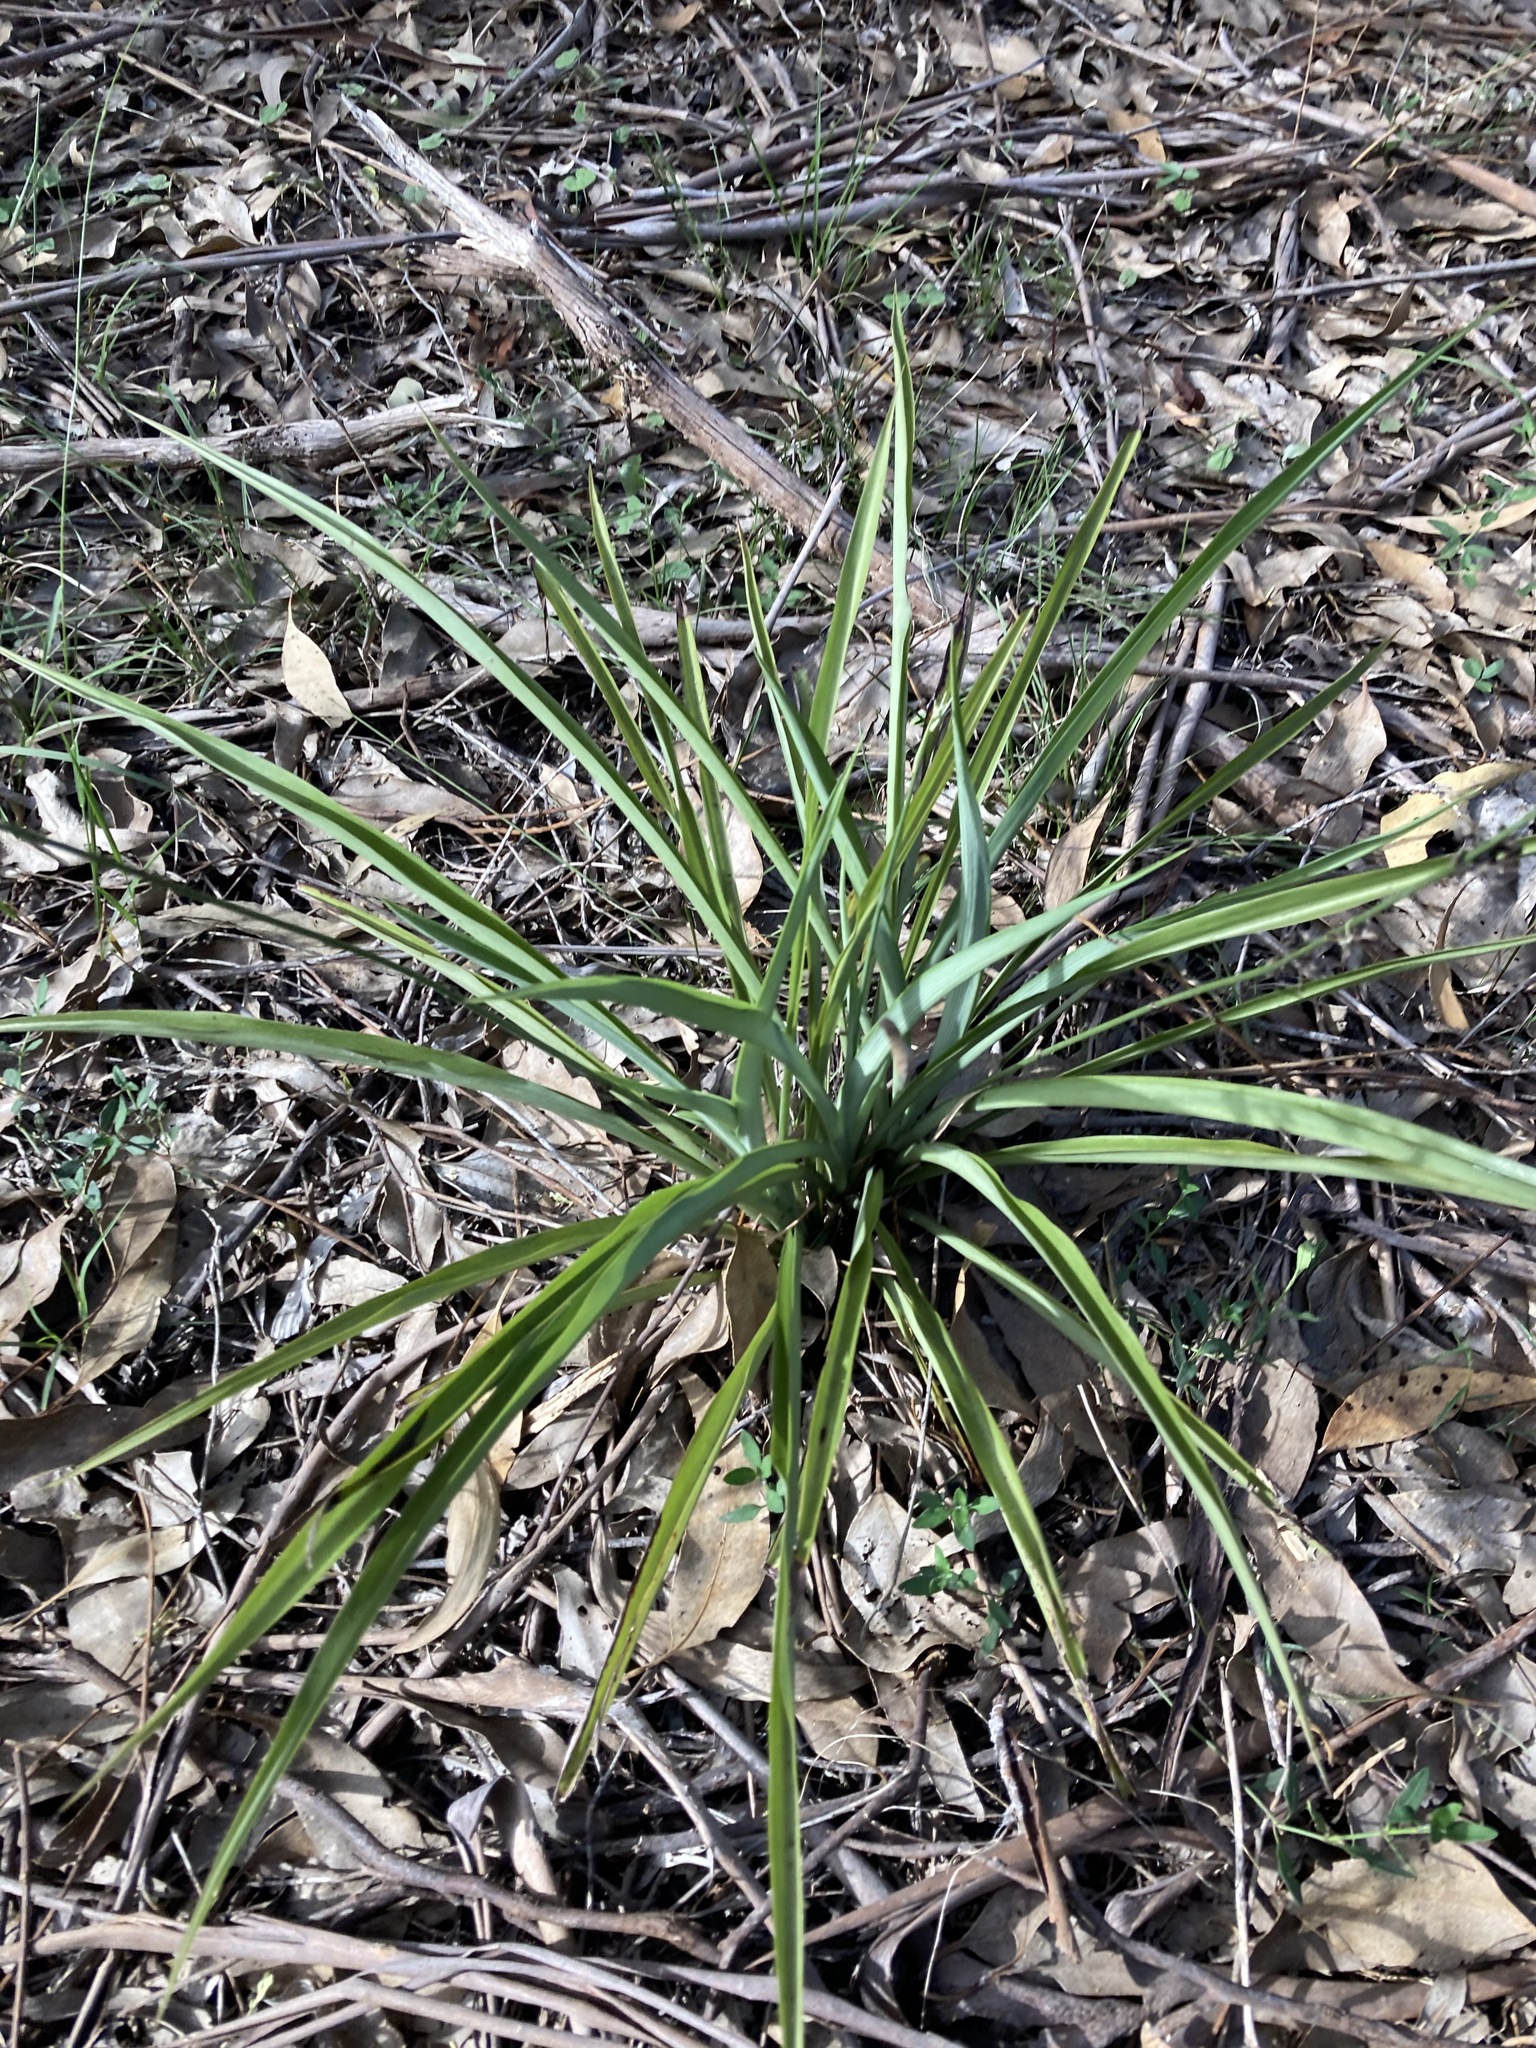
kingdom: Plantae
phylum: Tracheophyta
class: Liliopsida
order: Asparagales
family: Asparagaceae
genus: Chlorophytum
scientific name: Chlorophytum comosum
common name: Spider plant
